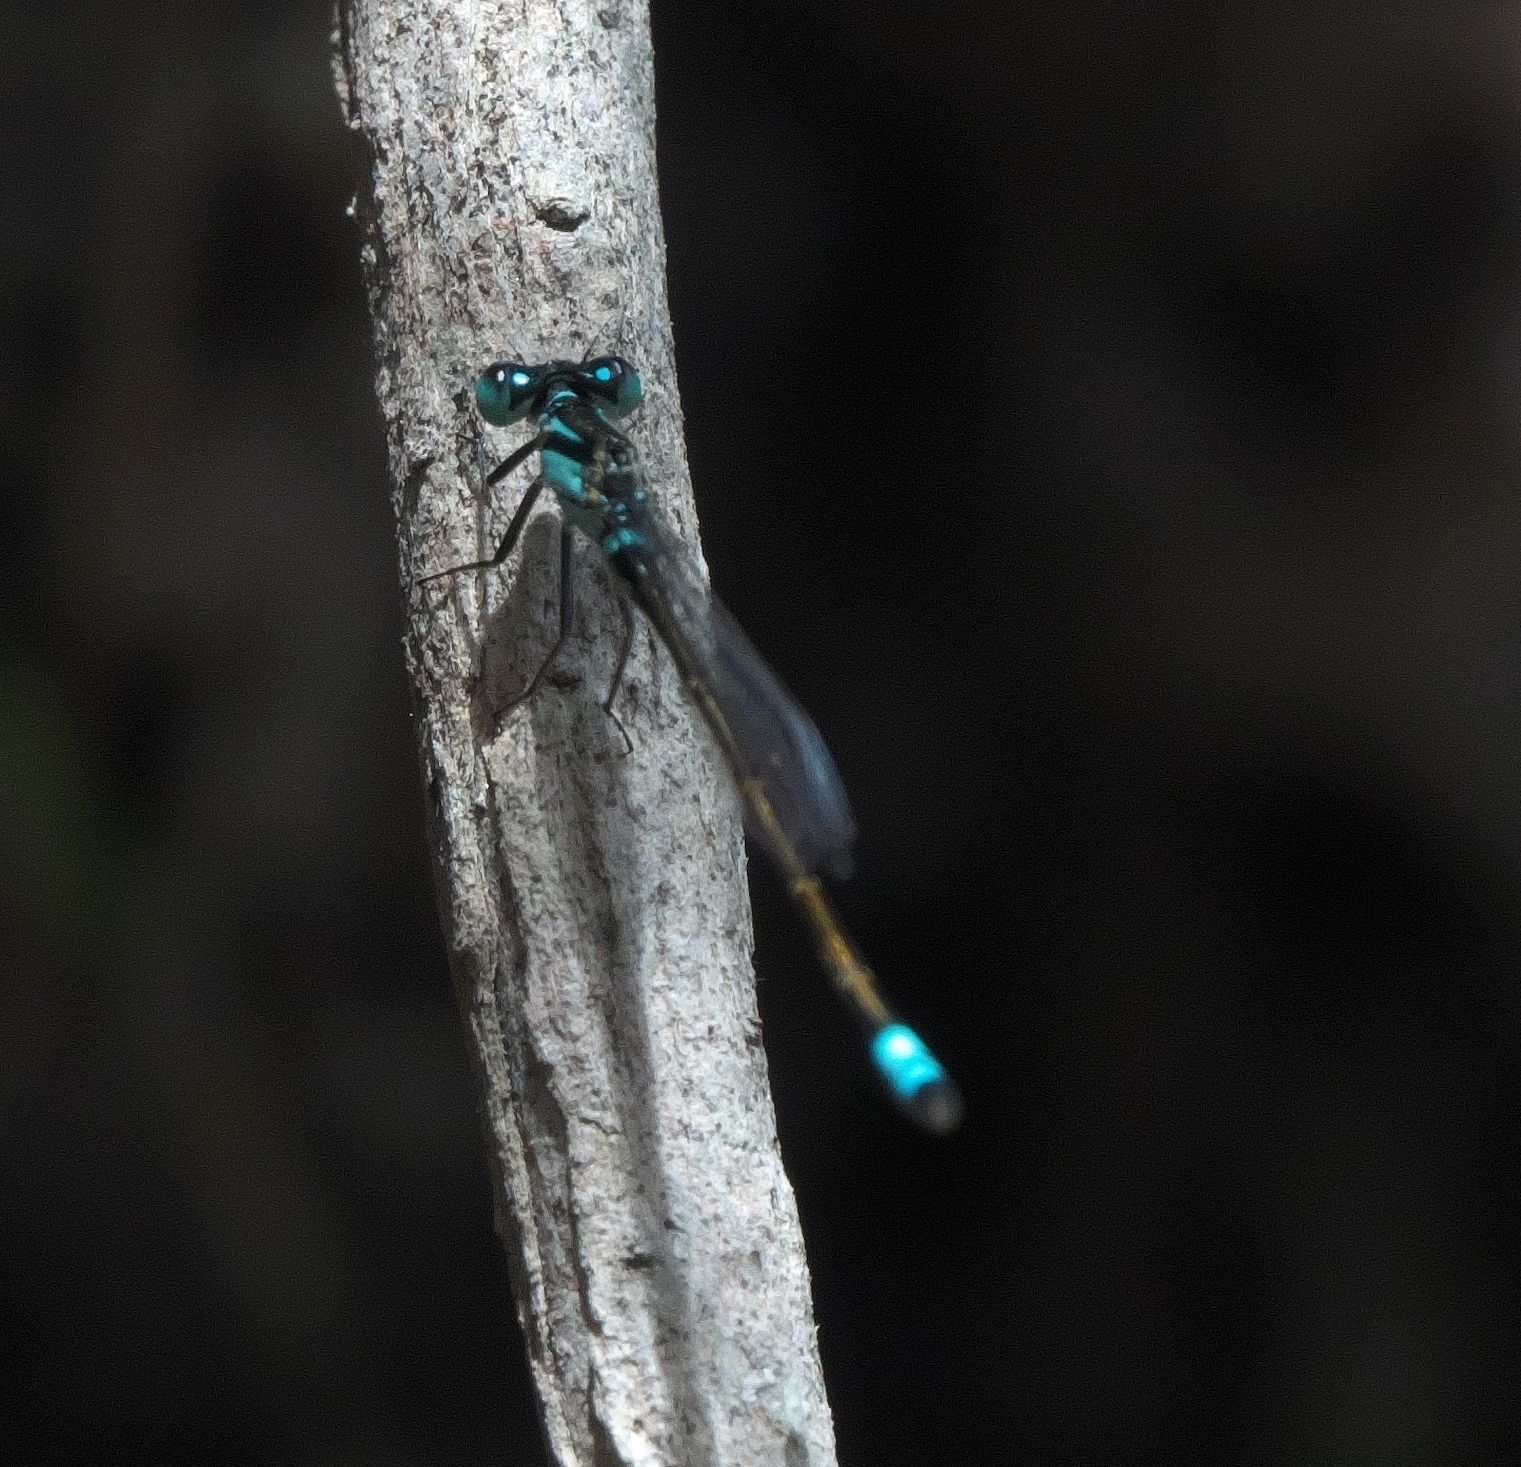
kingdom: Animalia
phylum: Arthropoda
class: Insecta
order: Odonata
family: Coenagrionidae
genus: Ischnura
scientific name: Ischnura heterosticta
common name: Common bluetail
